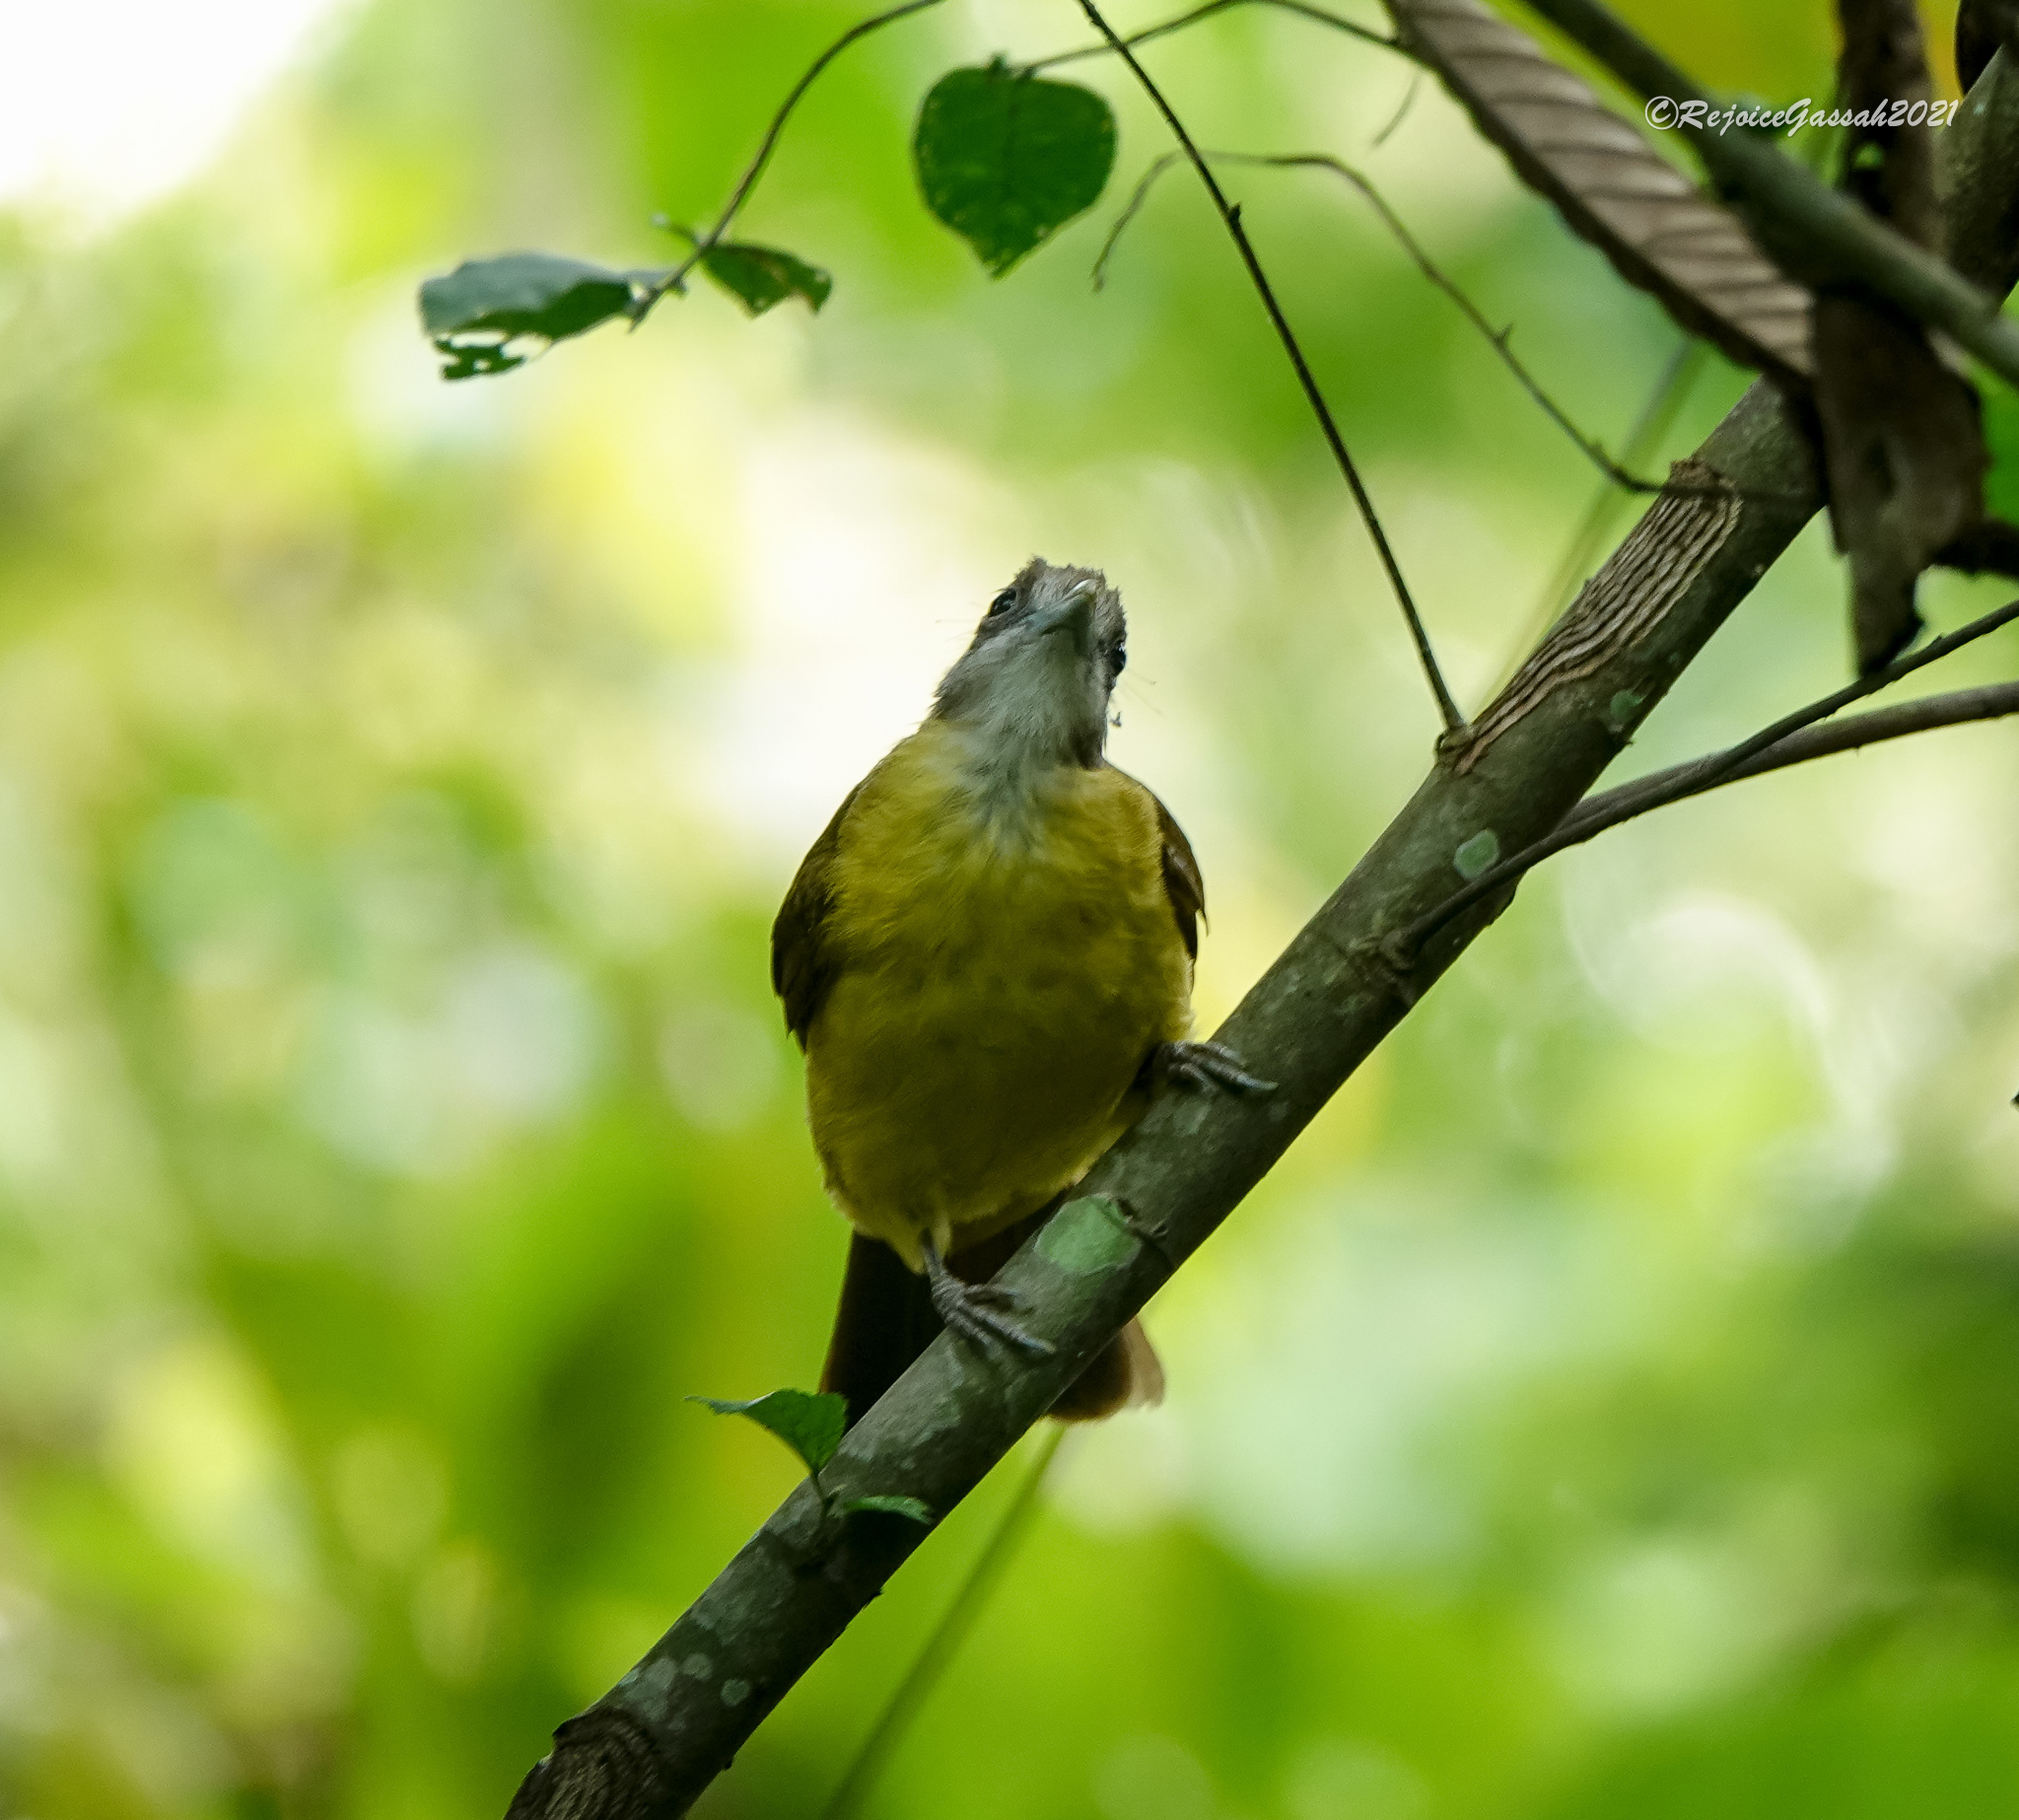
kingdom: Animalia
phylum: Chordata
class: Aves
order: Passeriformes
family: Pycnonotidae
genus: Alophoixus
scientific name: Alophoixus flaveolus
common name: White-throated bulbul
